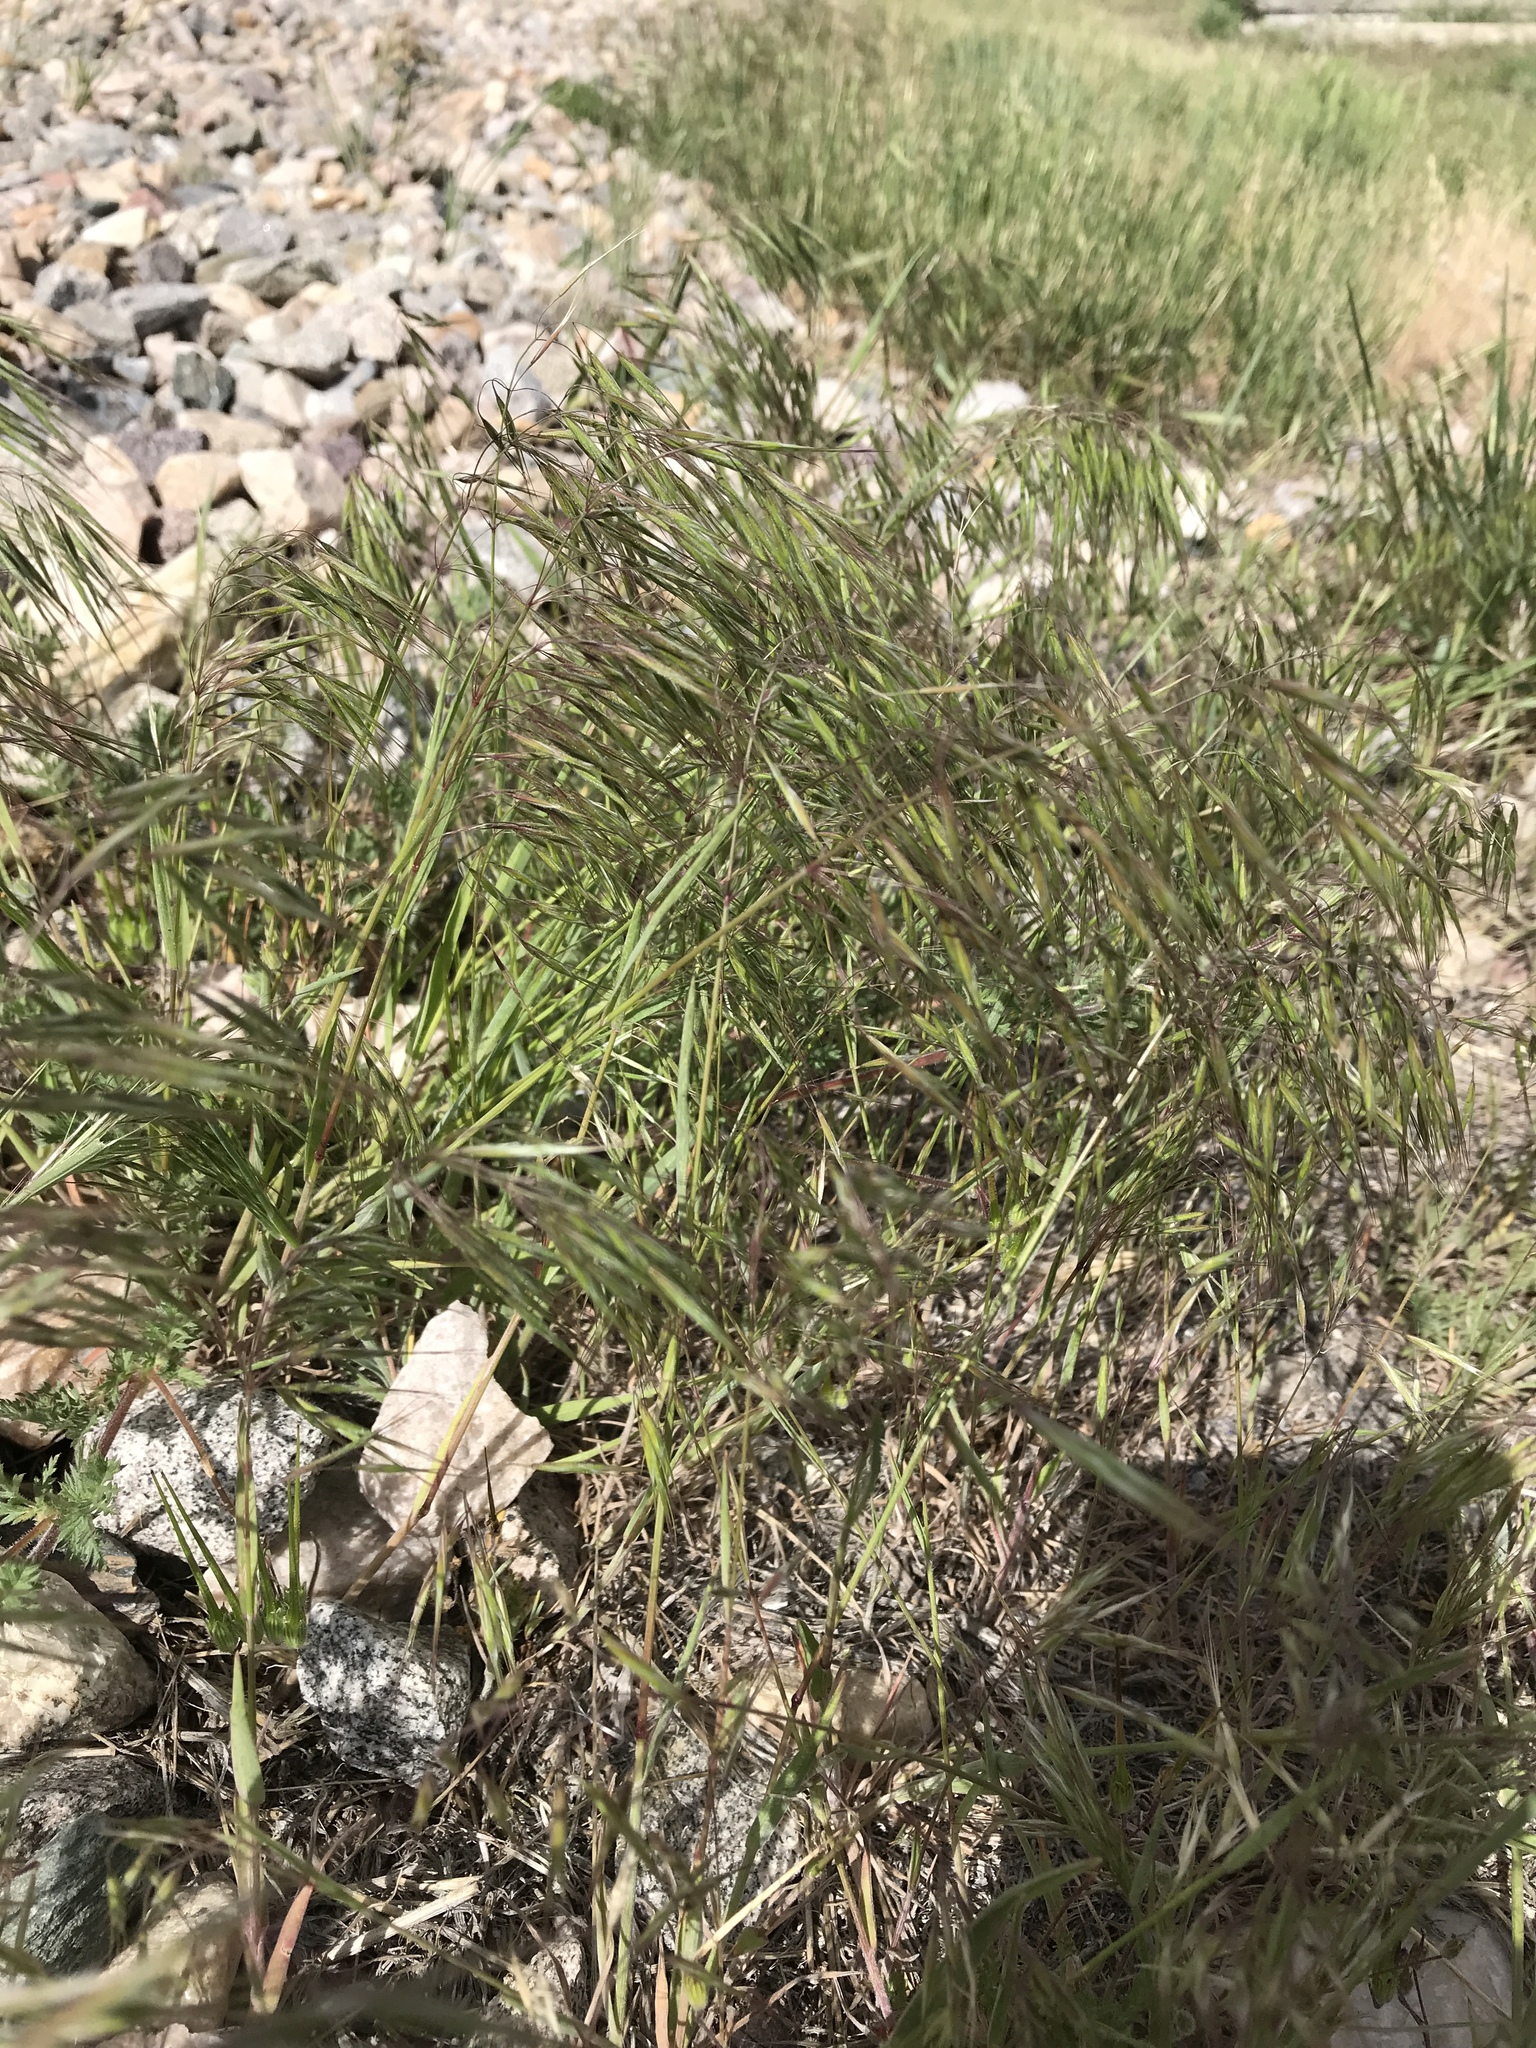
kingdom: Plantae
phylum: Tracheophyta
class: Liliopsida
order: Poales
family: Poaceae
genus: Bromus
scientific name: Bromus tectorum
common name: Cheatgrass
